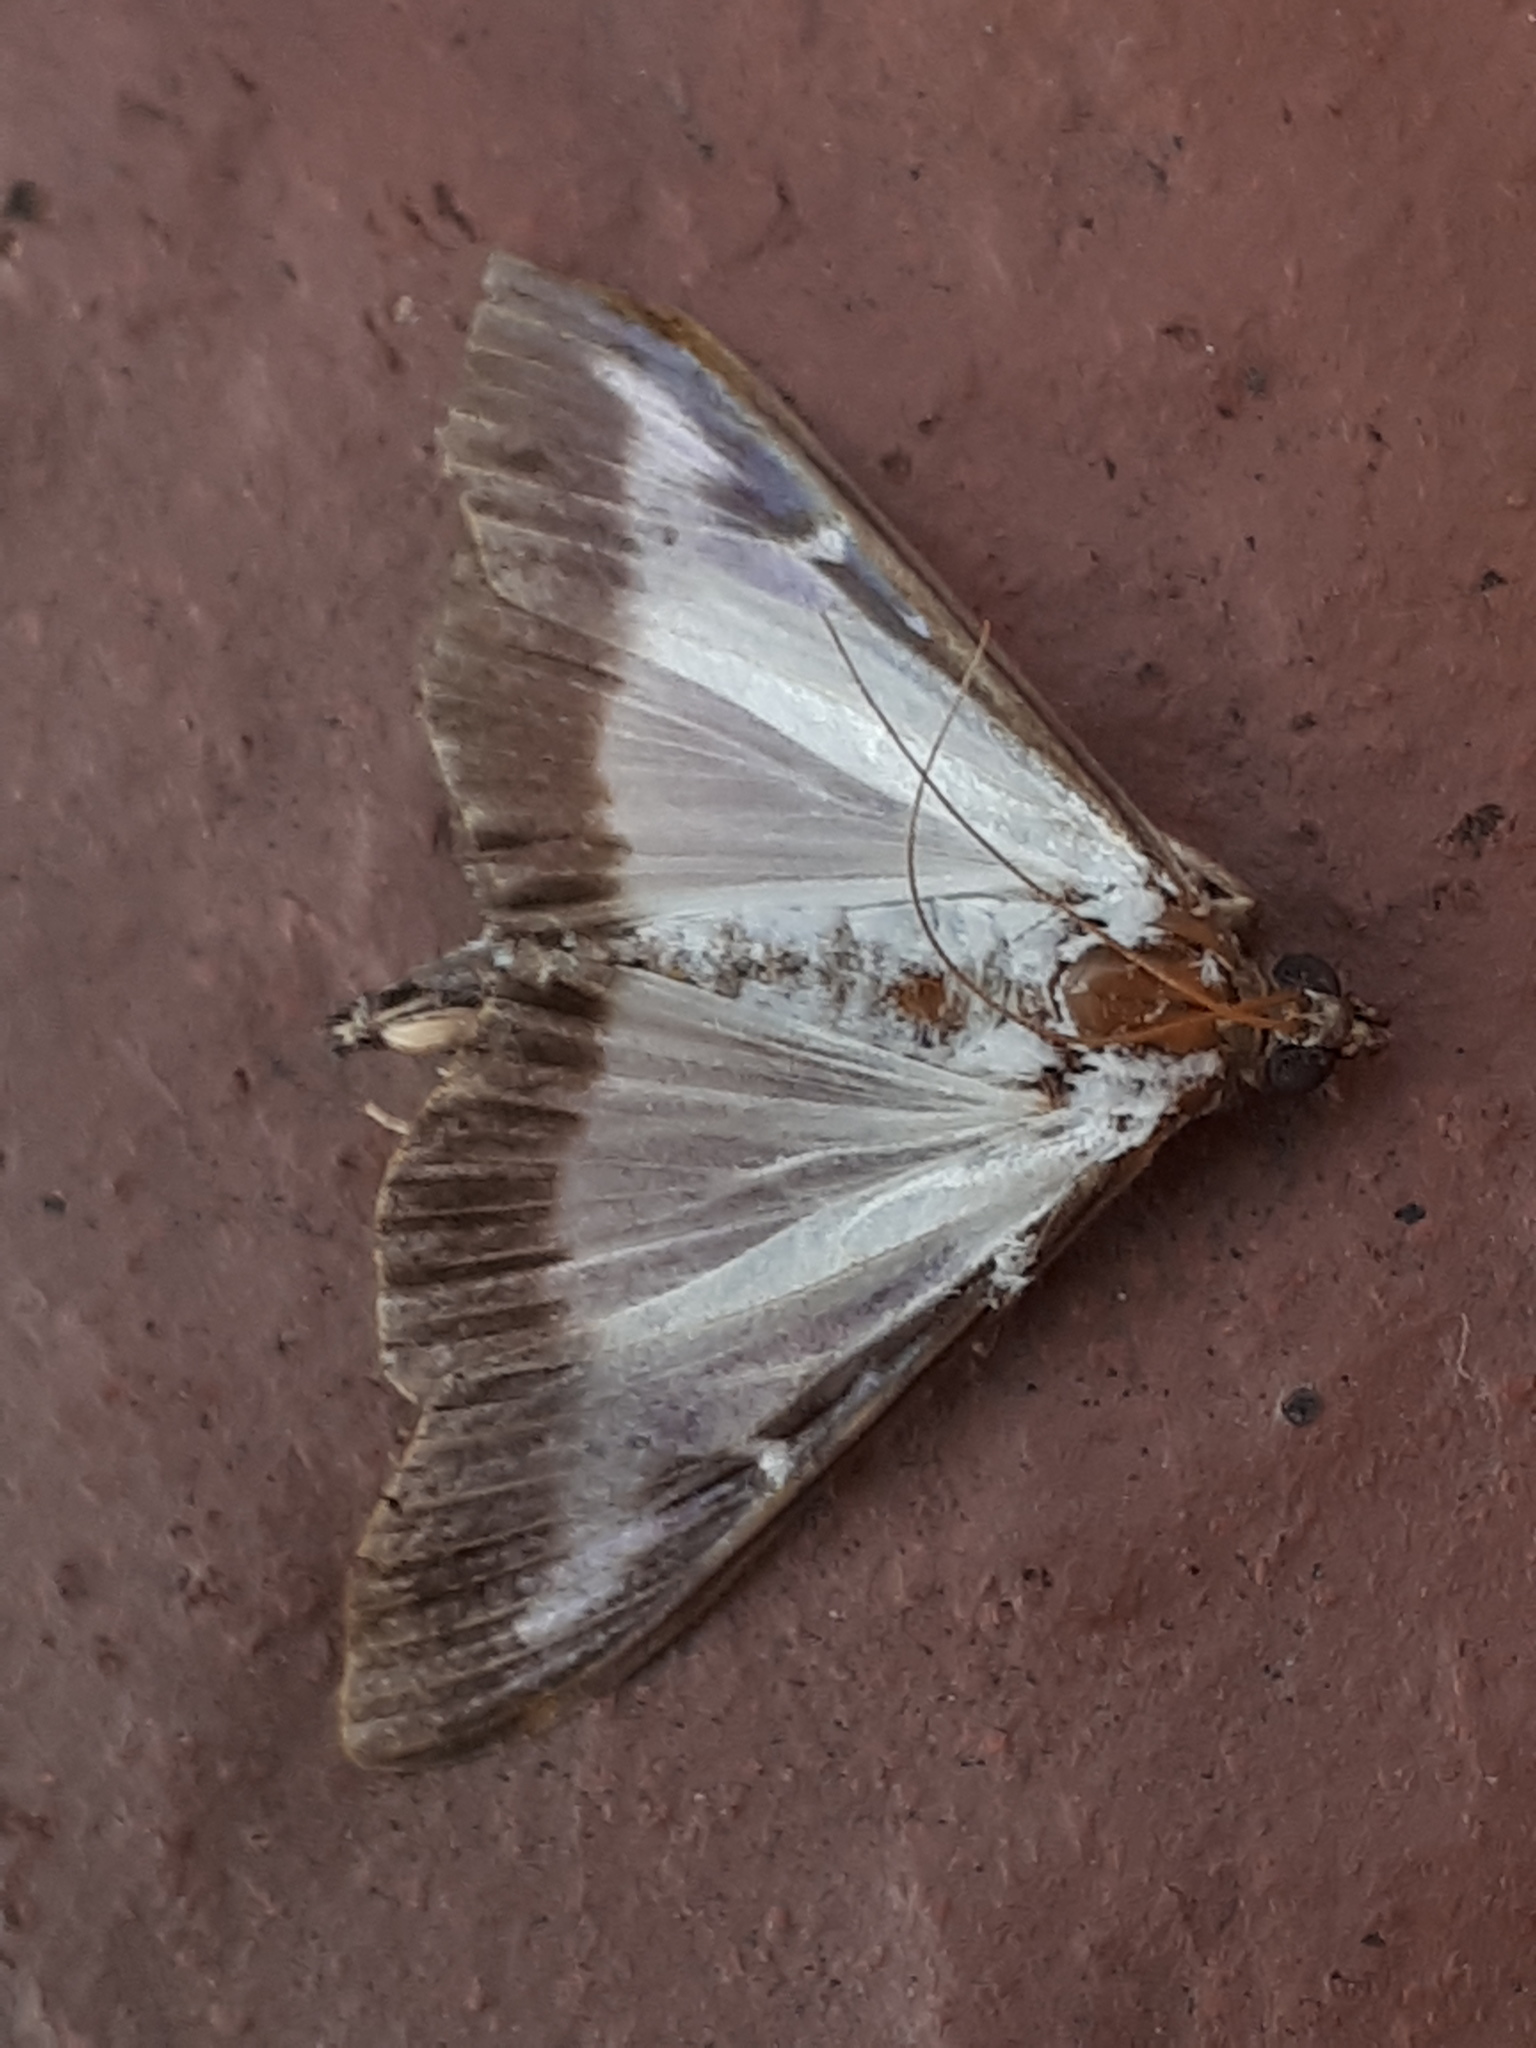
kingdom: Animalia
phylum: Arthropoda
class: Insecta
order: Lepidoptera
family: Crambidae
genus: Cydalima
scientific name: Cydalima perspectalis
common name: Box tree moth
